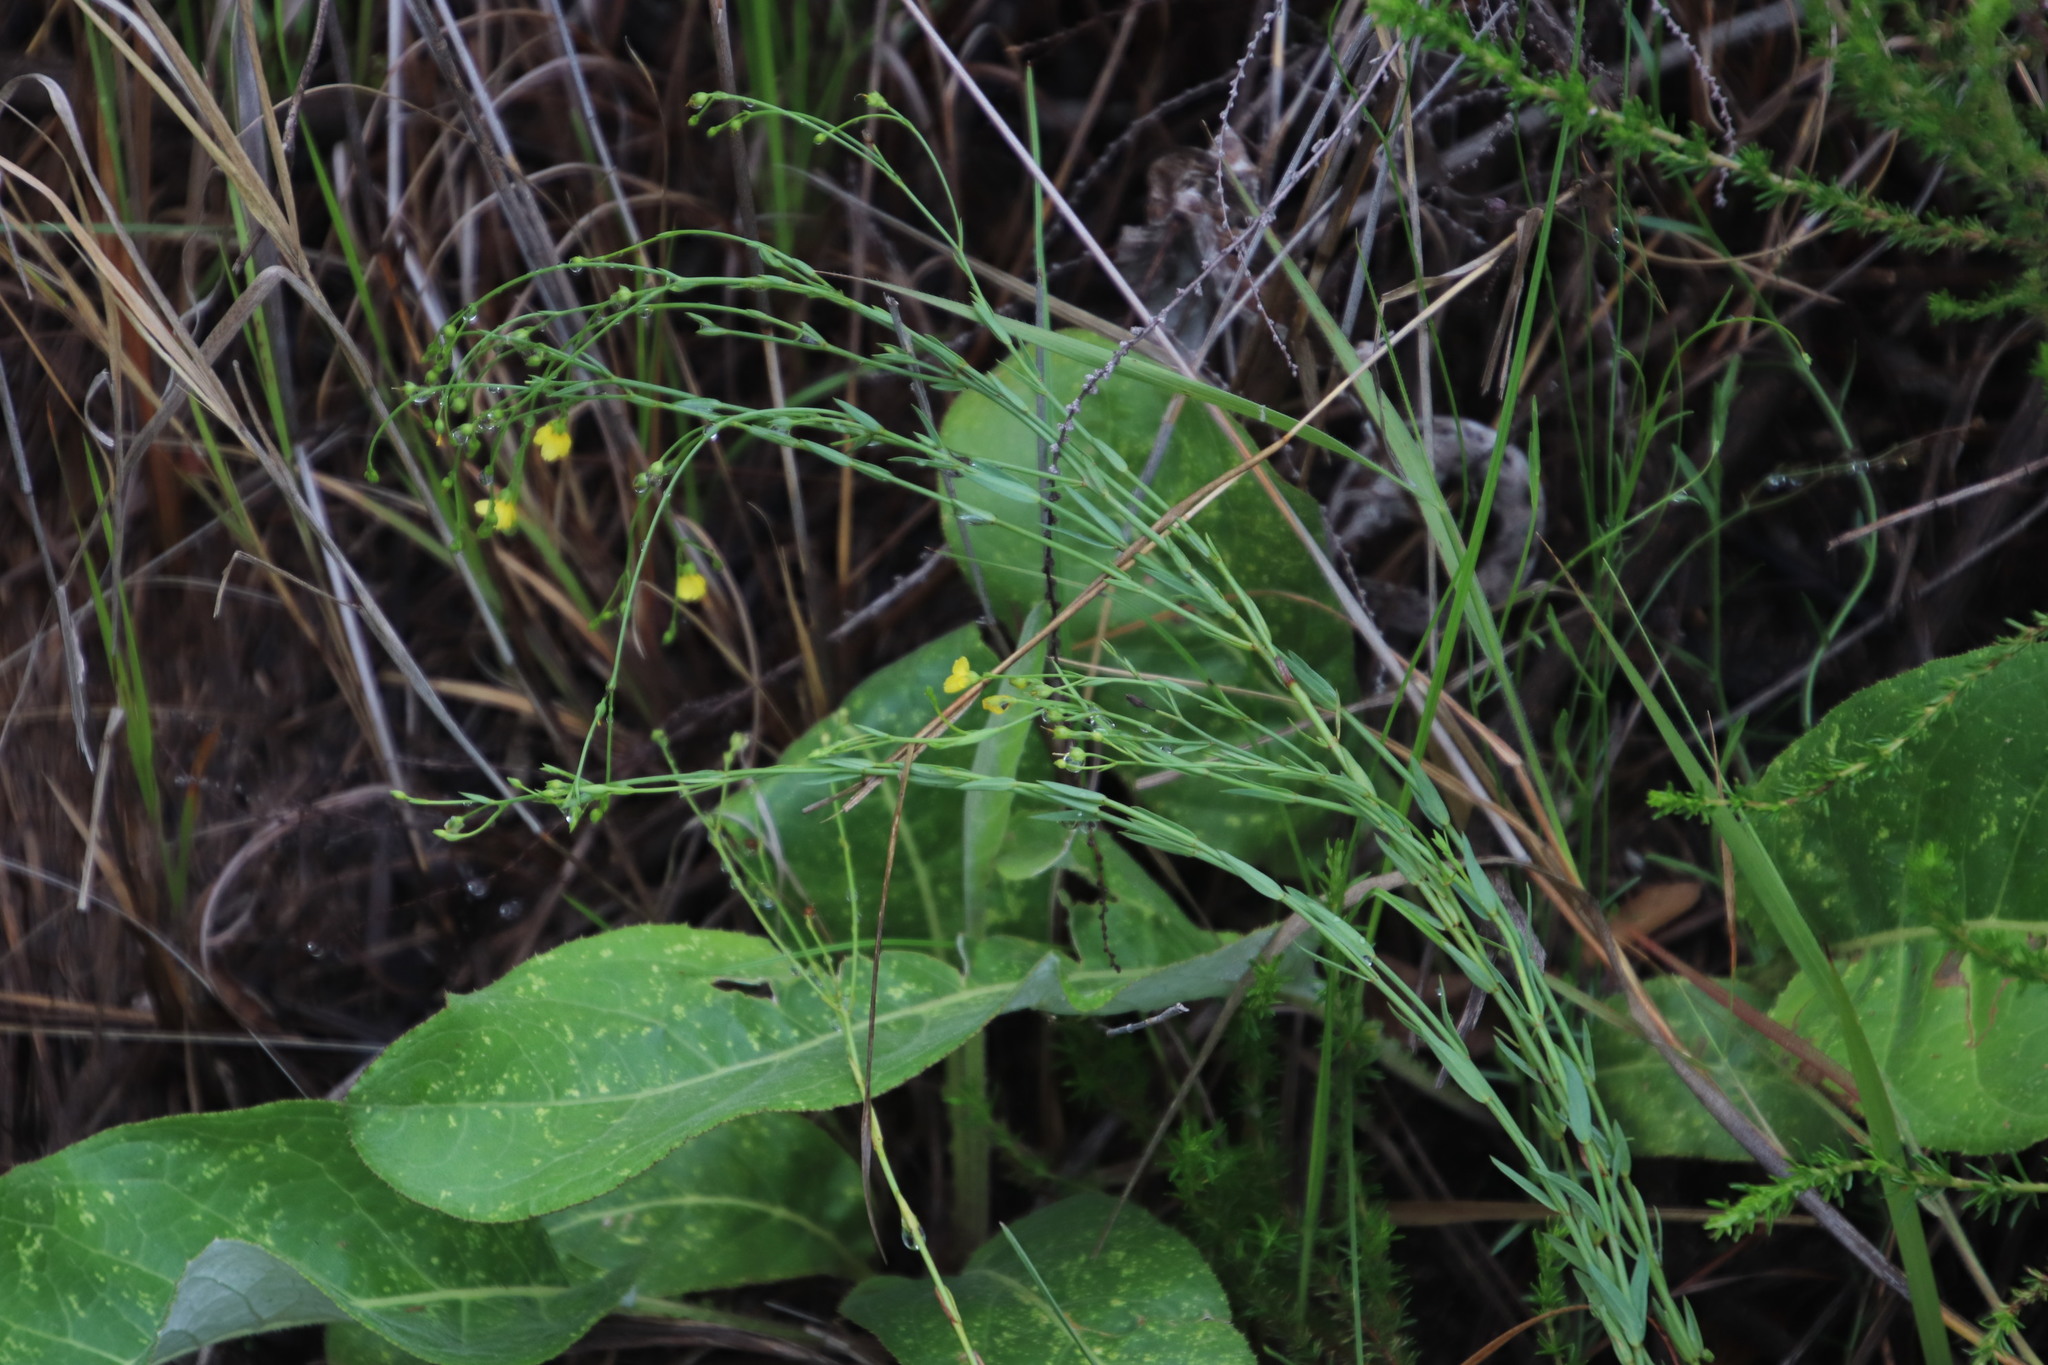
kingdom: Plantae
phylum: Tracheophyta
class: Magnoliopsida
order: Malpighiales
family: Linaceae
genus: Linum
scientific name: Linum thunbergii
